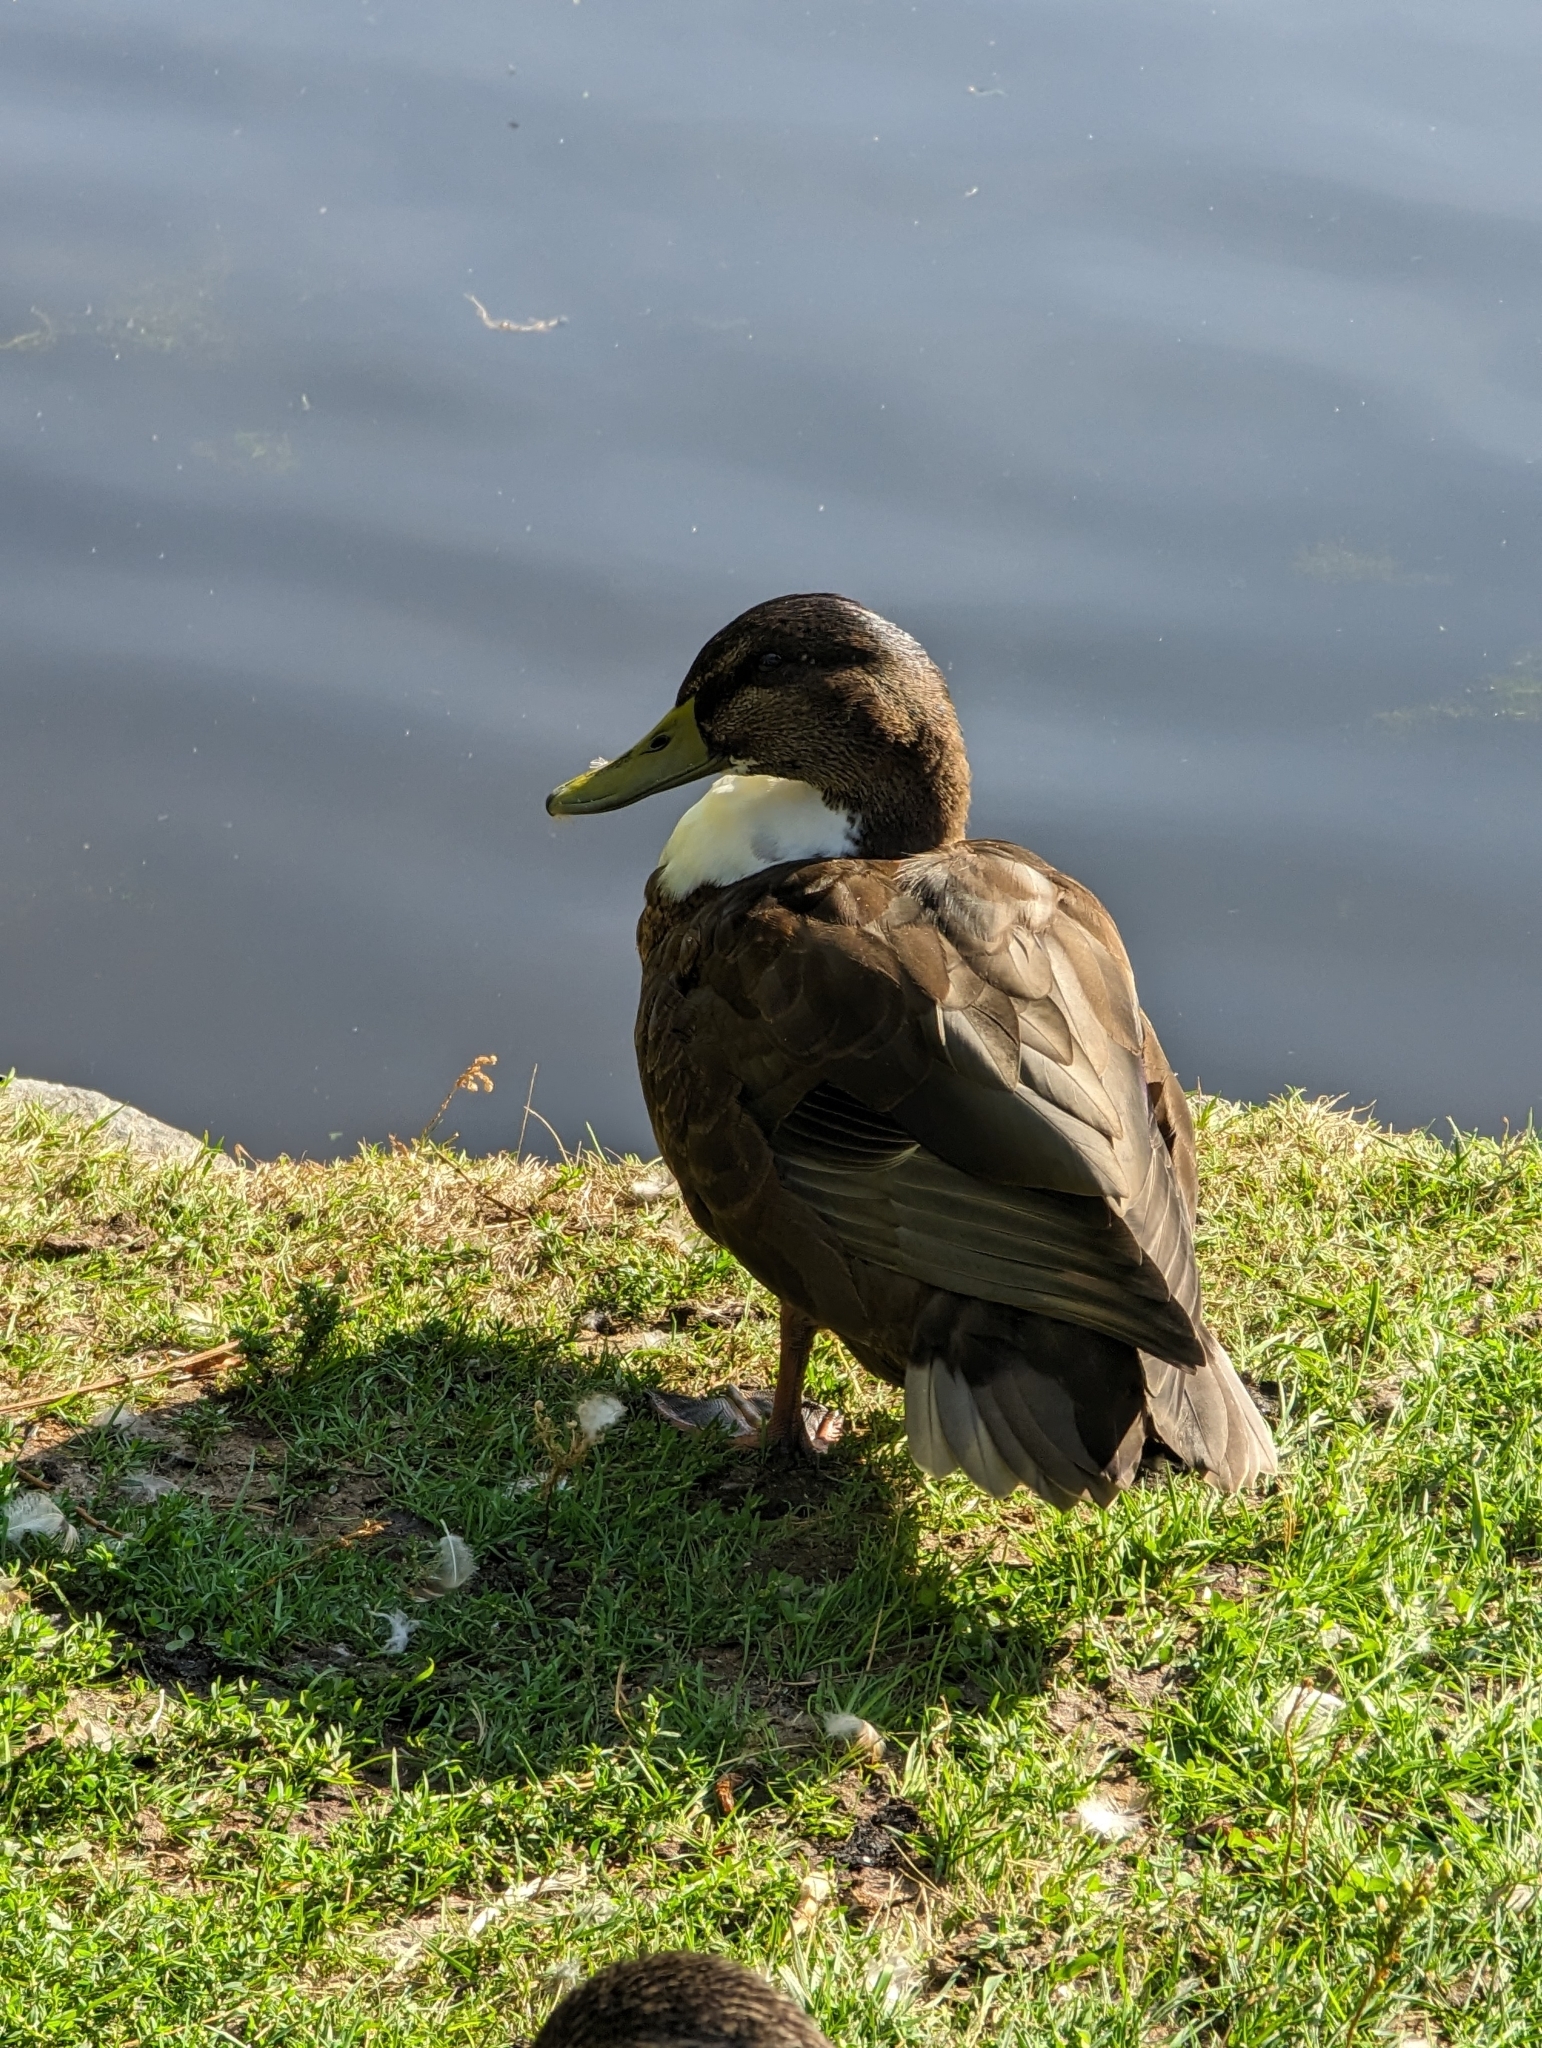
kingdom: Animalia
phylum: Chordata
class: Aves
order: Anseriformes
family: Anatidae
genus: Anas
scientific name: Anas platyrhynchos
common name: Mallard
